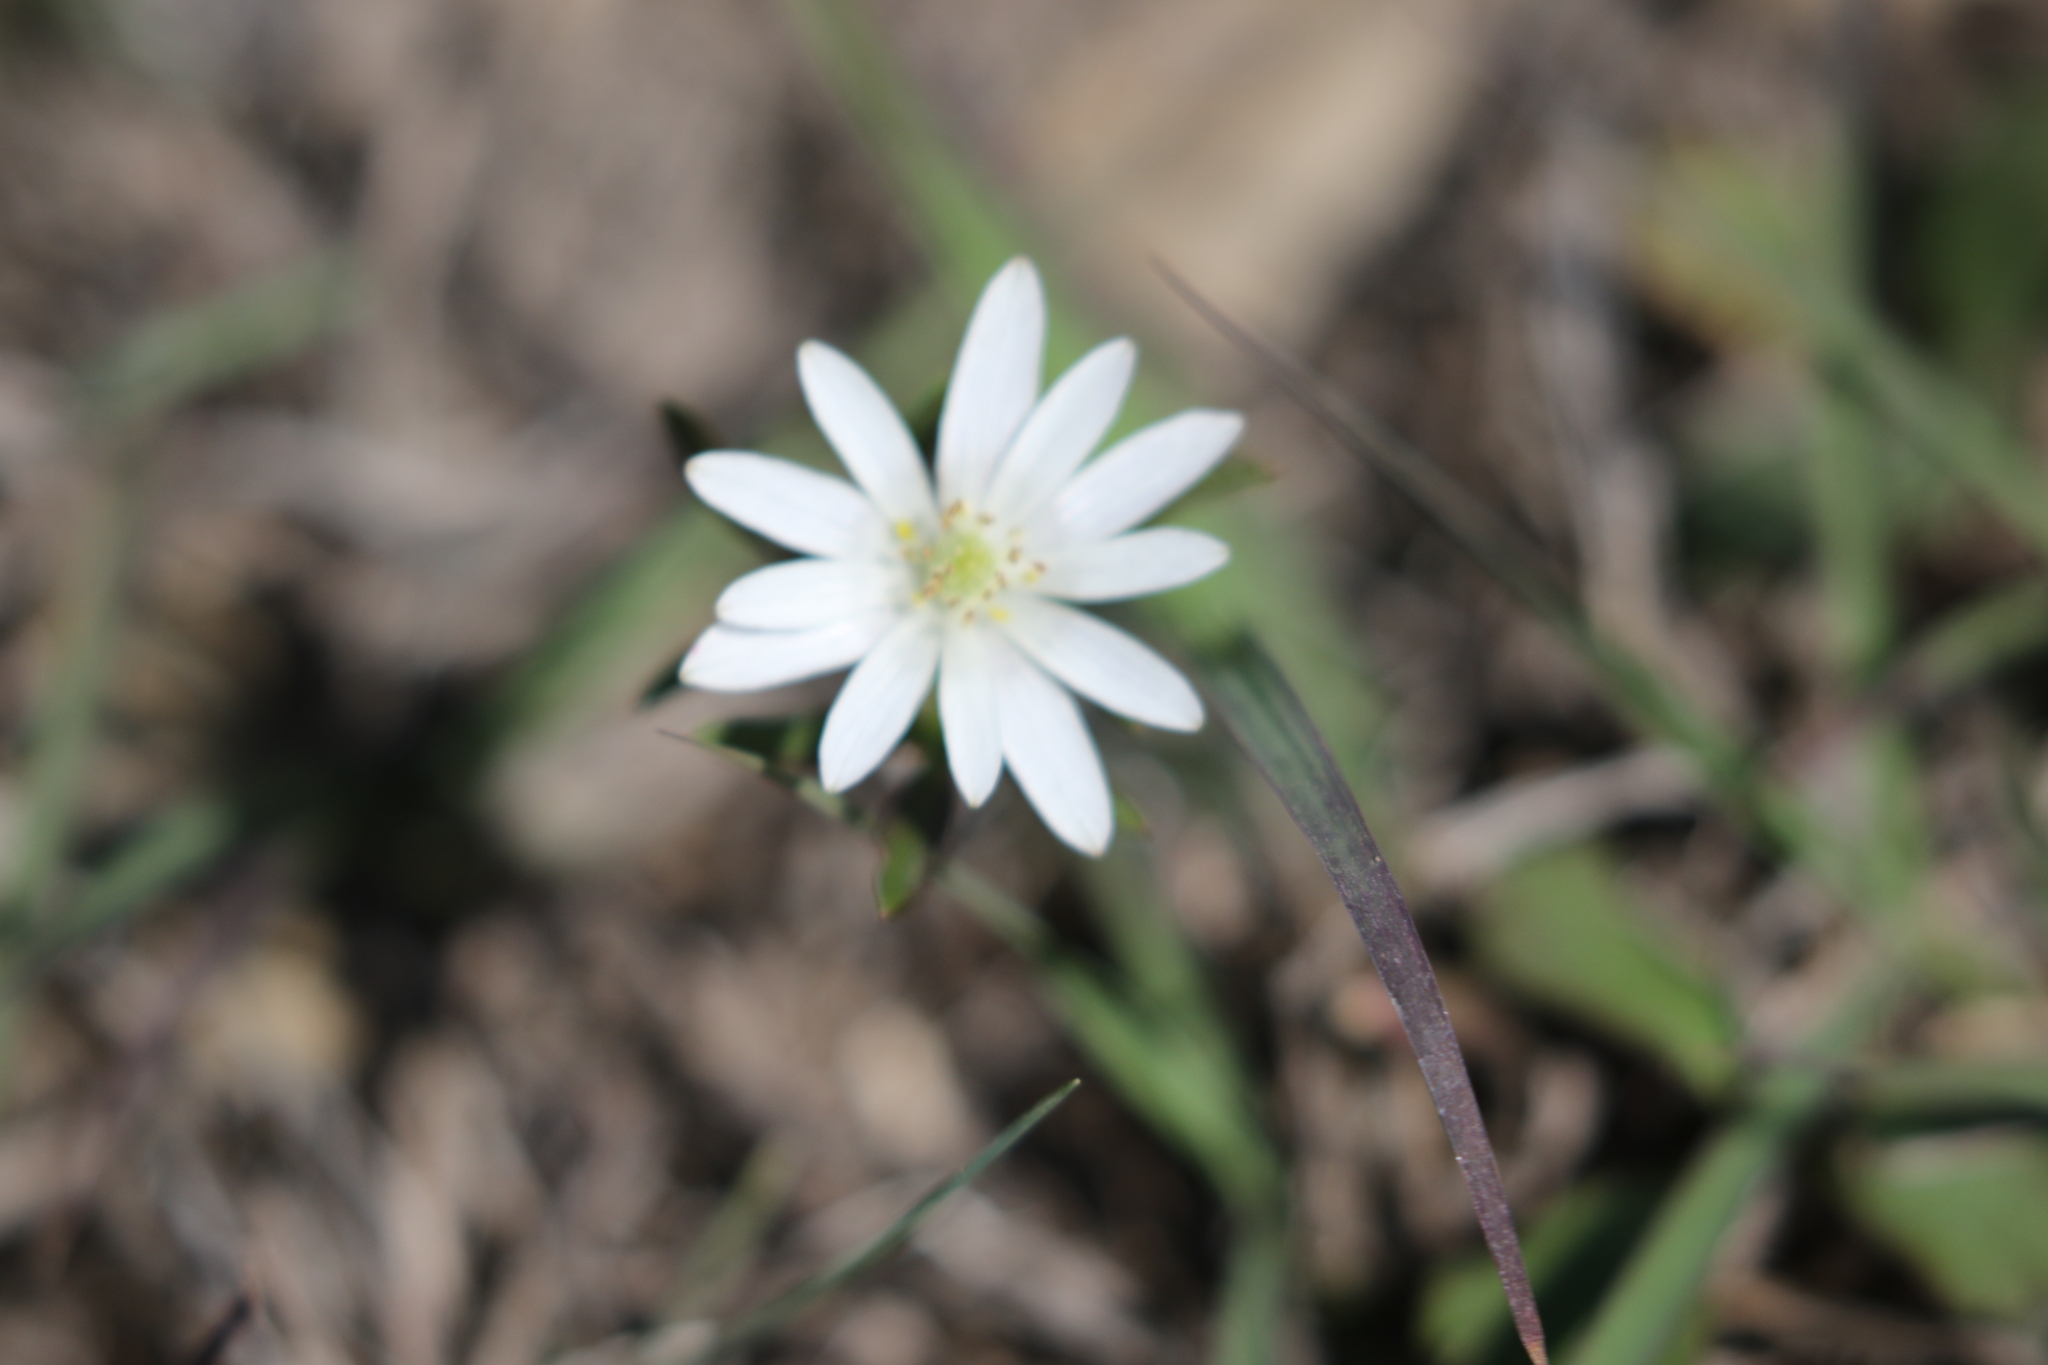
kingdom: Plantae
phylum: Tracheophyta
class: Magnoliopsida
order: Ranunculales
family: Ranunculaceae
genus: Anemone
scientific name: Anemone berlandieri
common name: Ten-petal anemone
